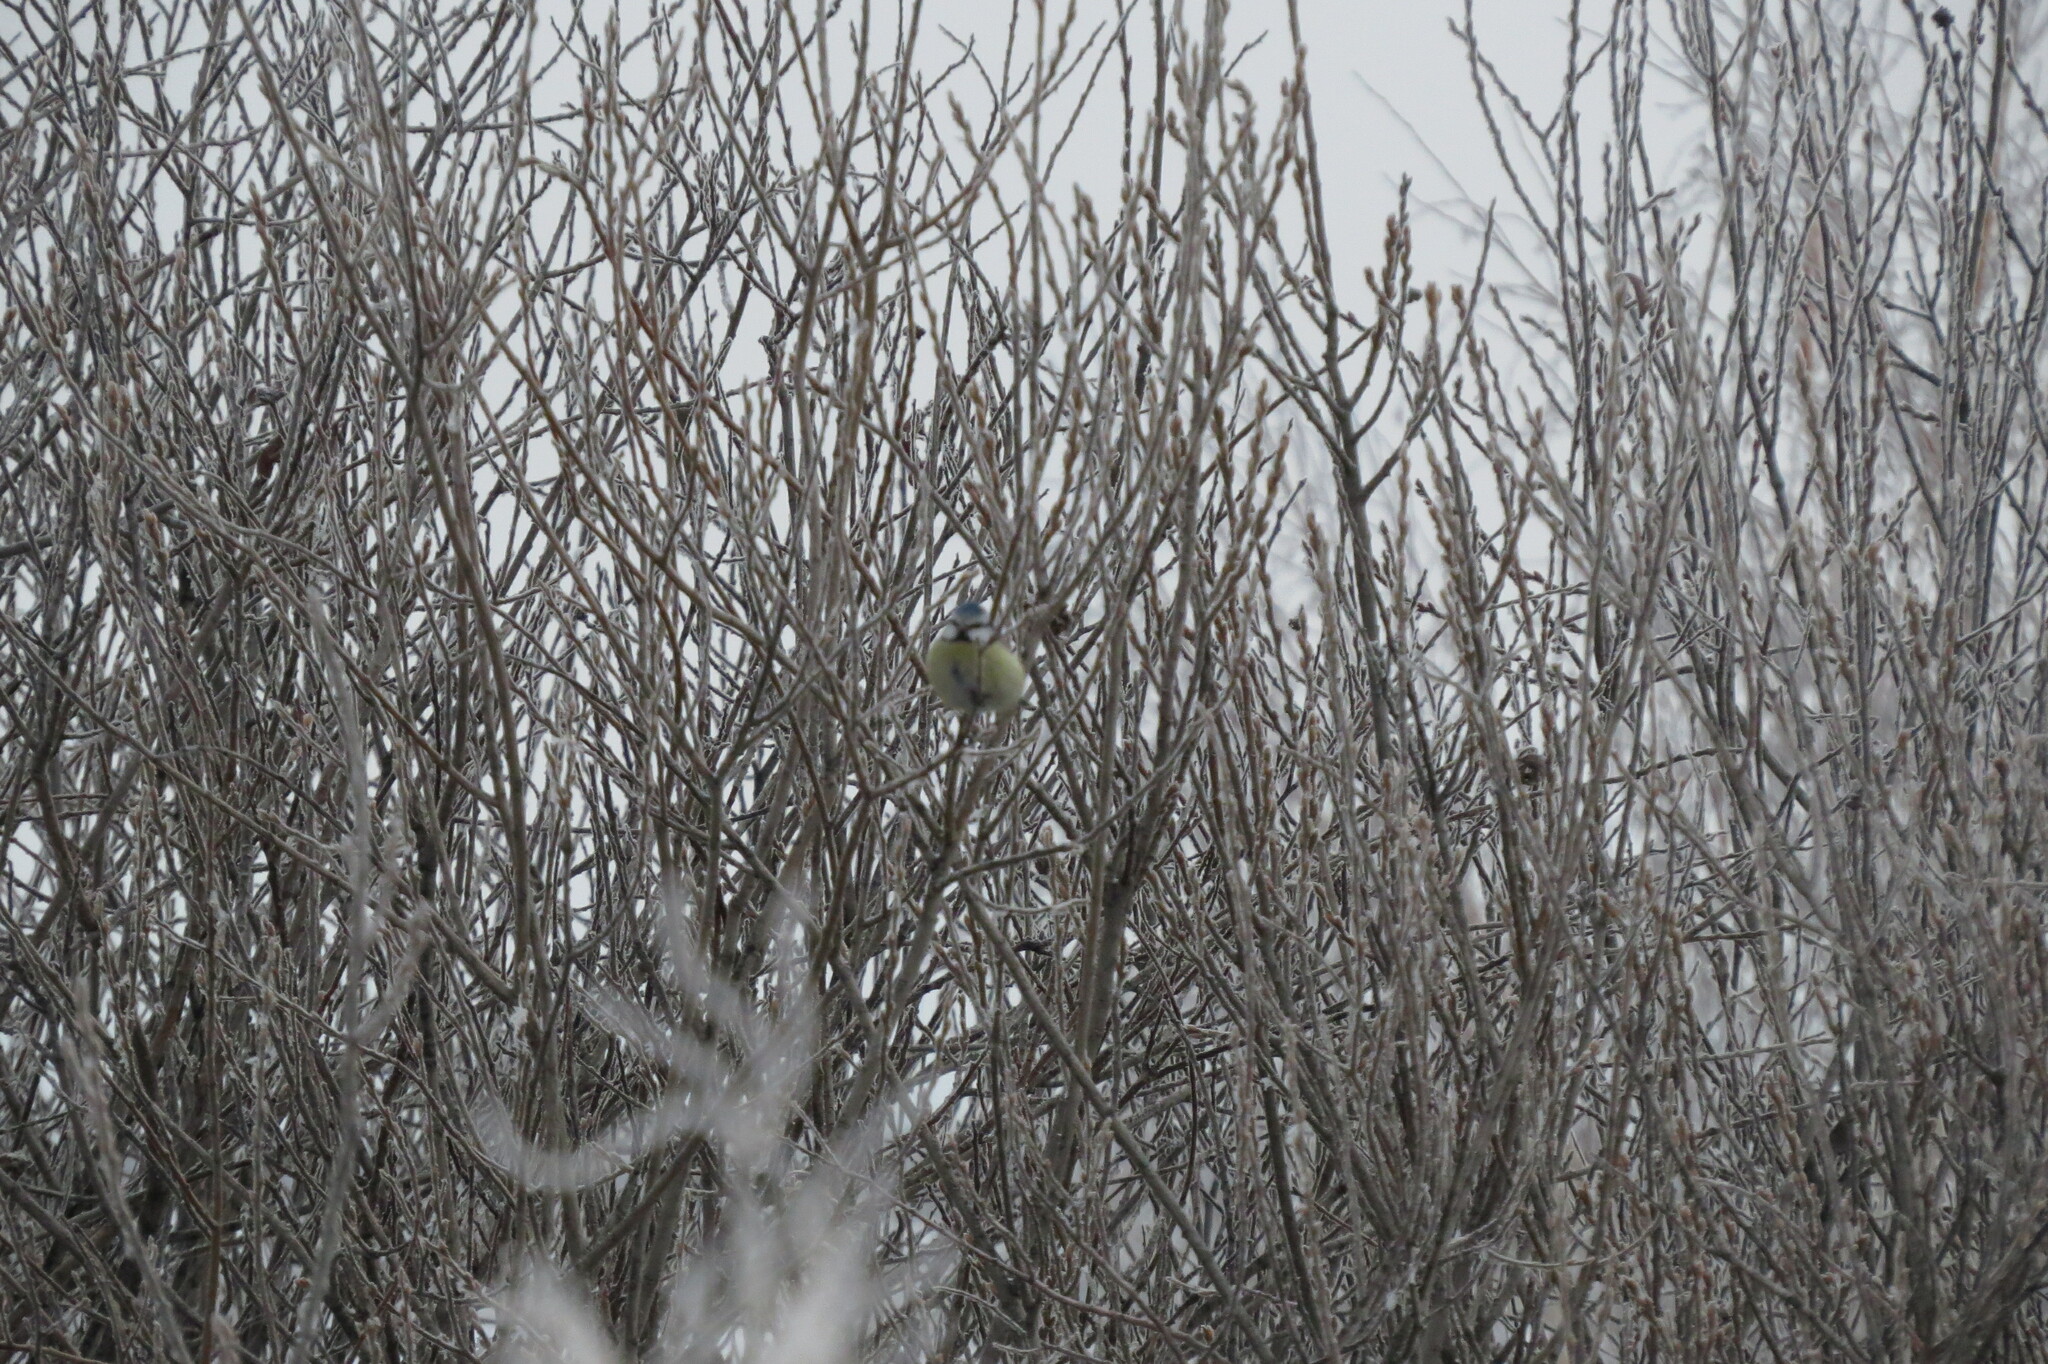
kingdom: Animalia
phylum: Chordata
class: Aves
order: Passeriformes
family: Paridae
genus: Cyanistes
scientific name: Cyanistes caeruleus
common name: Eurasian blue tit
